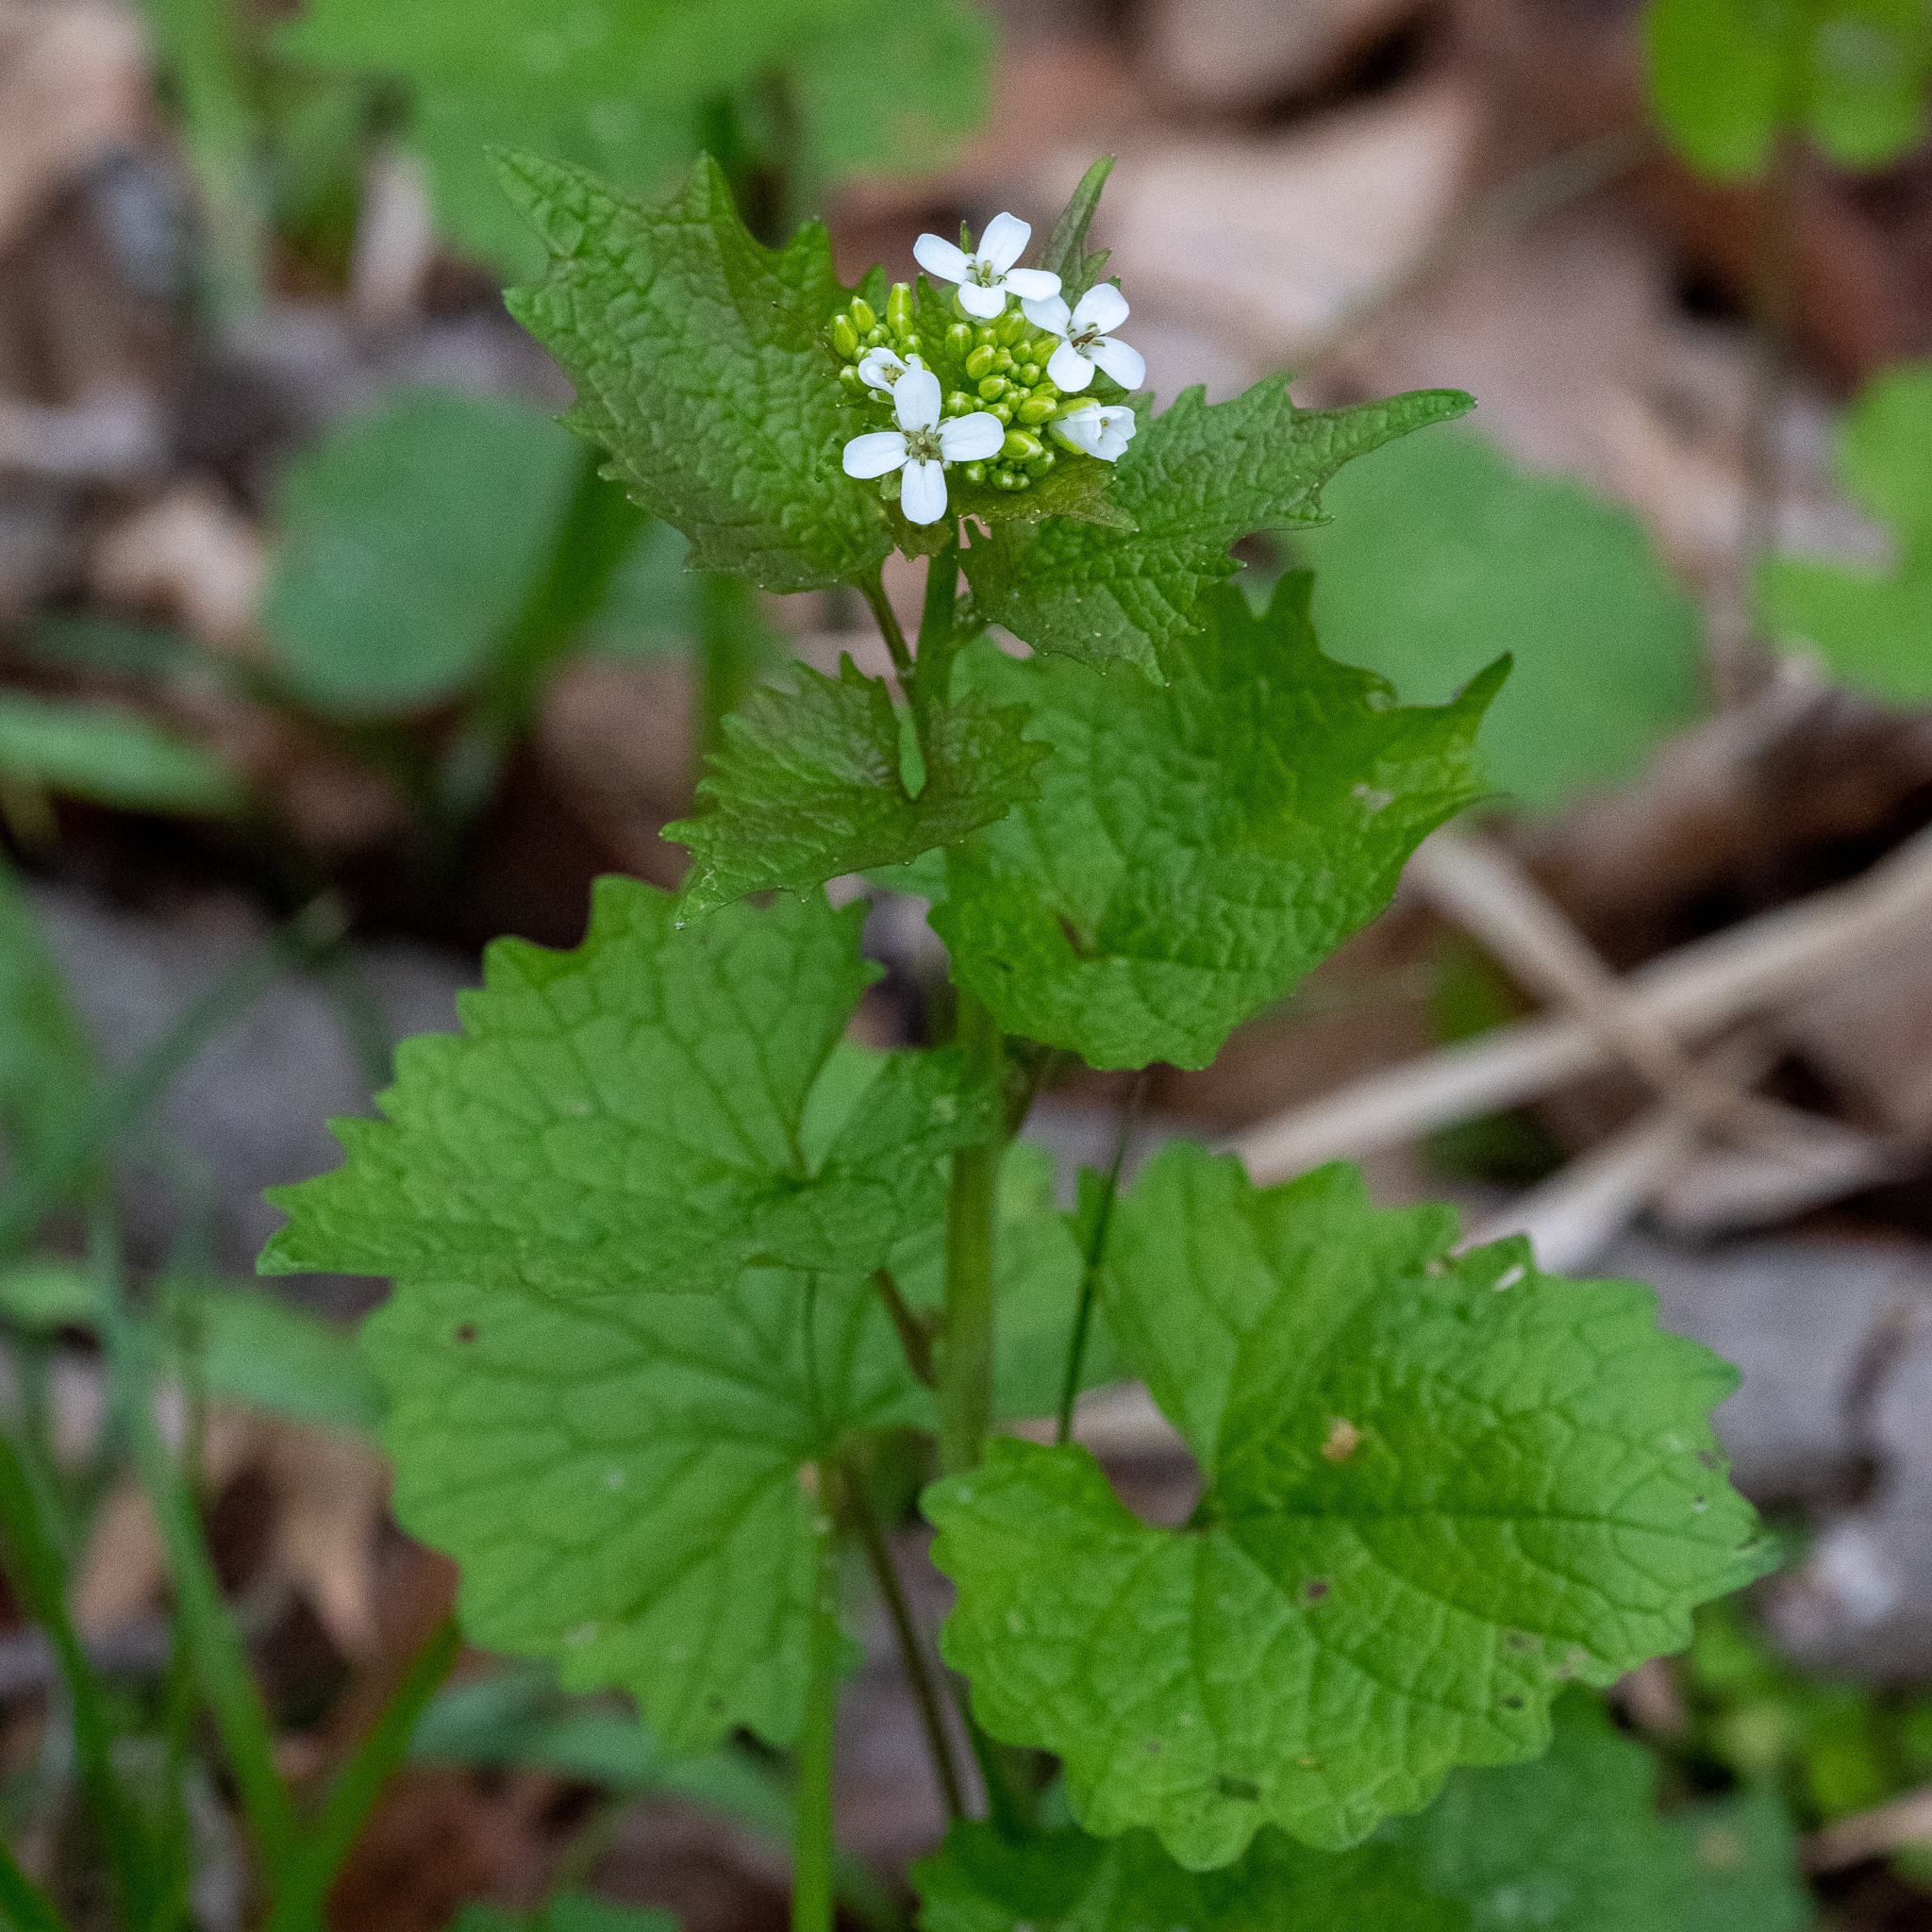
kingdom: Plantae
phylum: Tracheophyta
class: Magnoliopsida
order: Brassicales
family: Brassicaceae
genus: Alliaria
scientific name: Alliaria petiolata
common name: Garlic mustard
